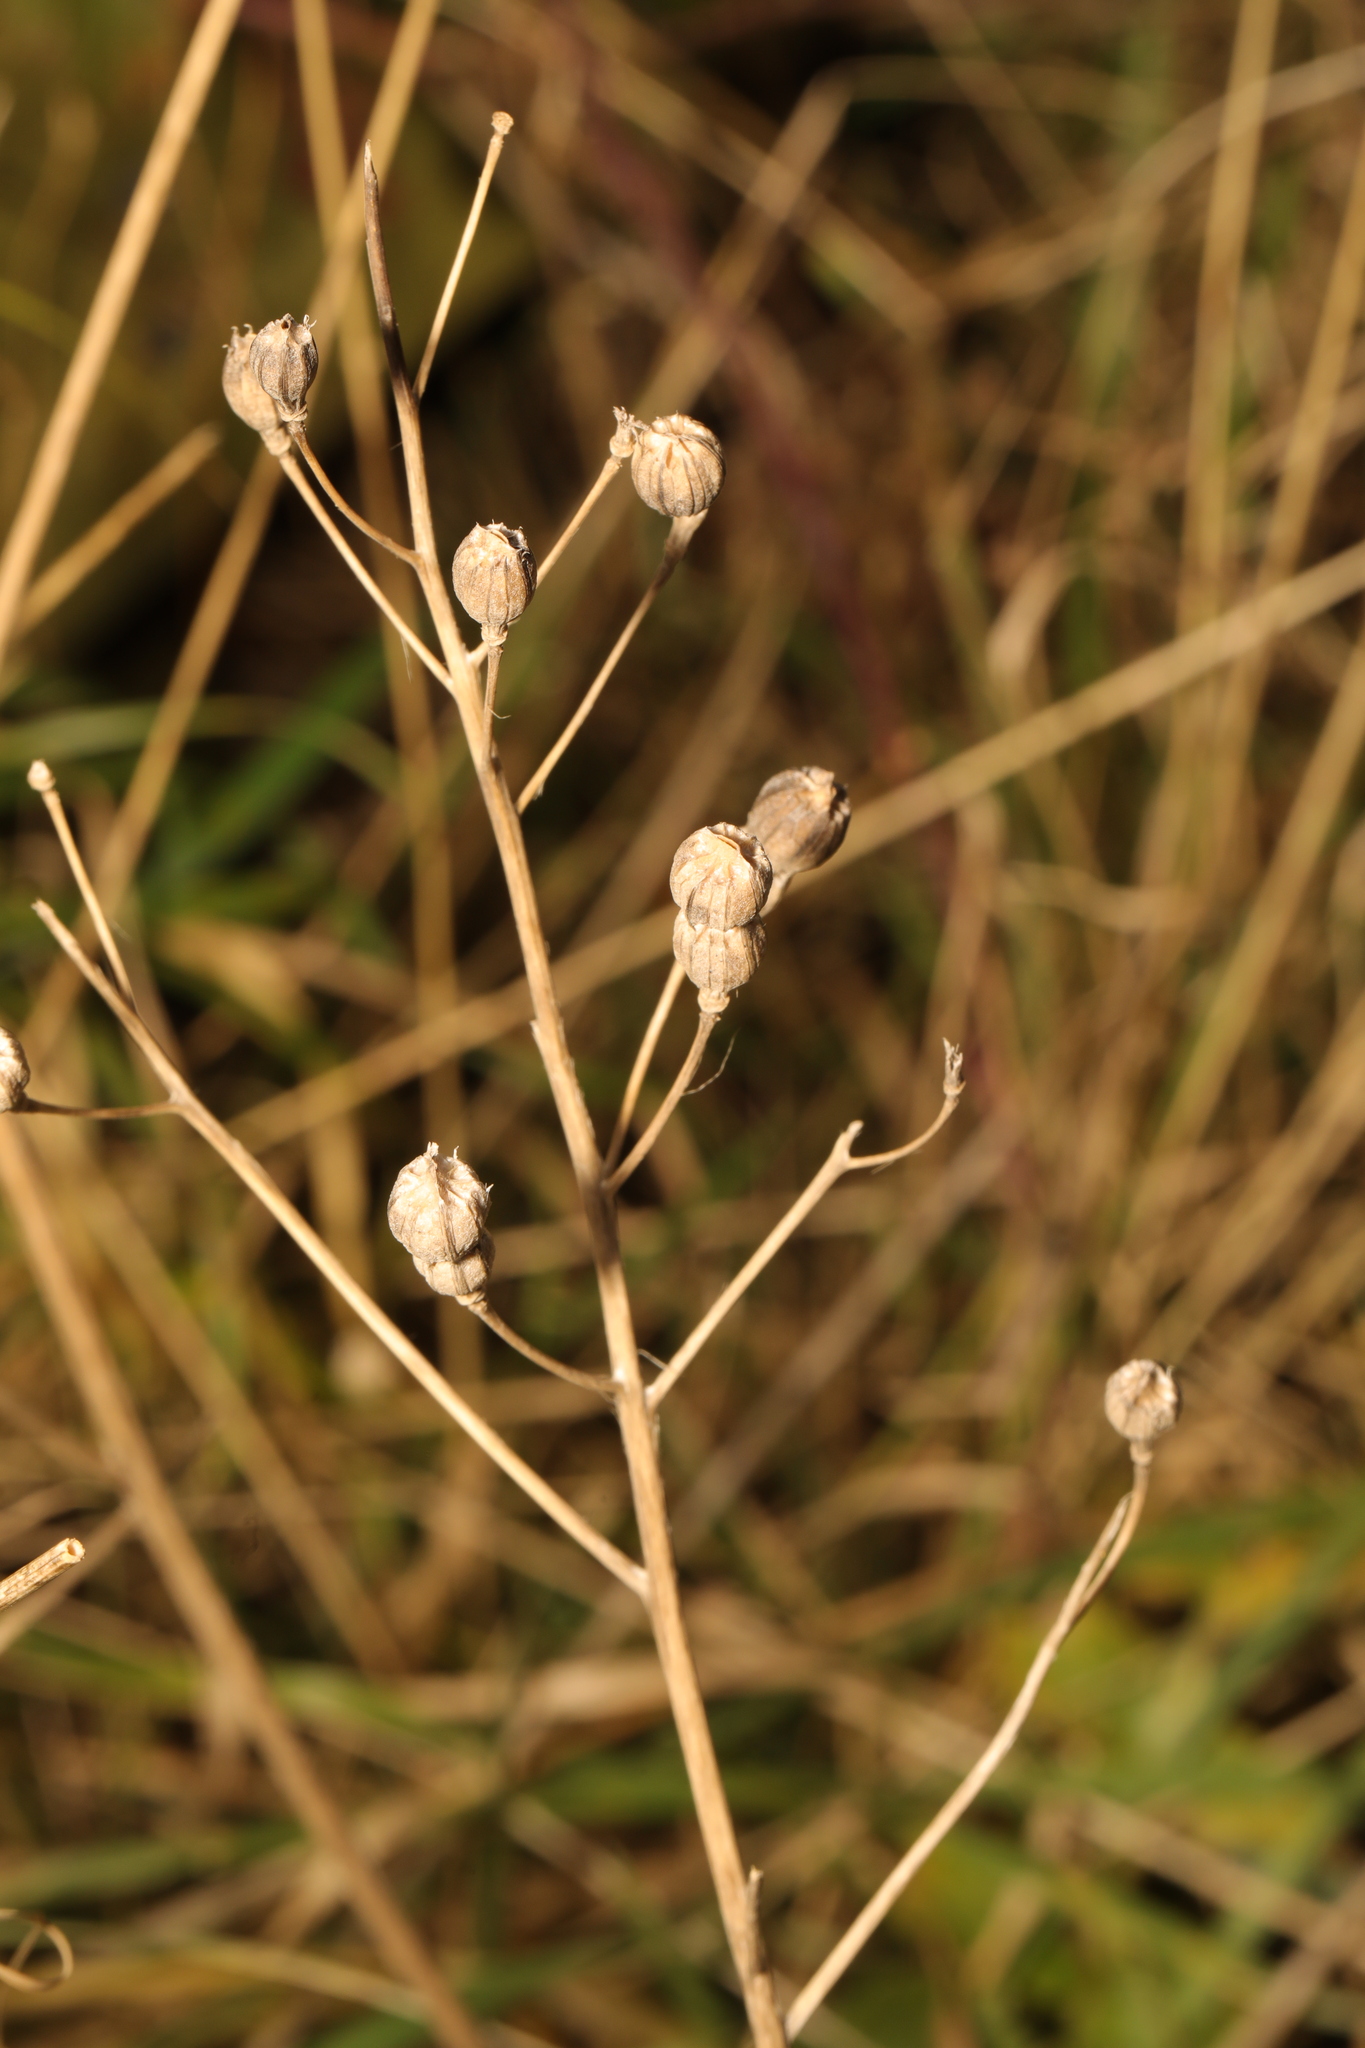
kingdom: Plantae
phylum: Tracheophyta
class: Magnoliopsida
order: Brassicales
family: Brassicaceae
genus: Raphanus
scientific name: Raphanus raphanistrum
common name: Wild radish
